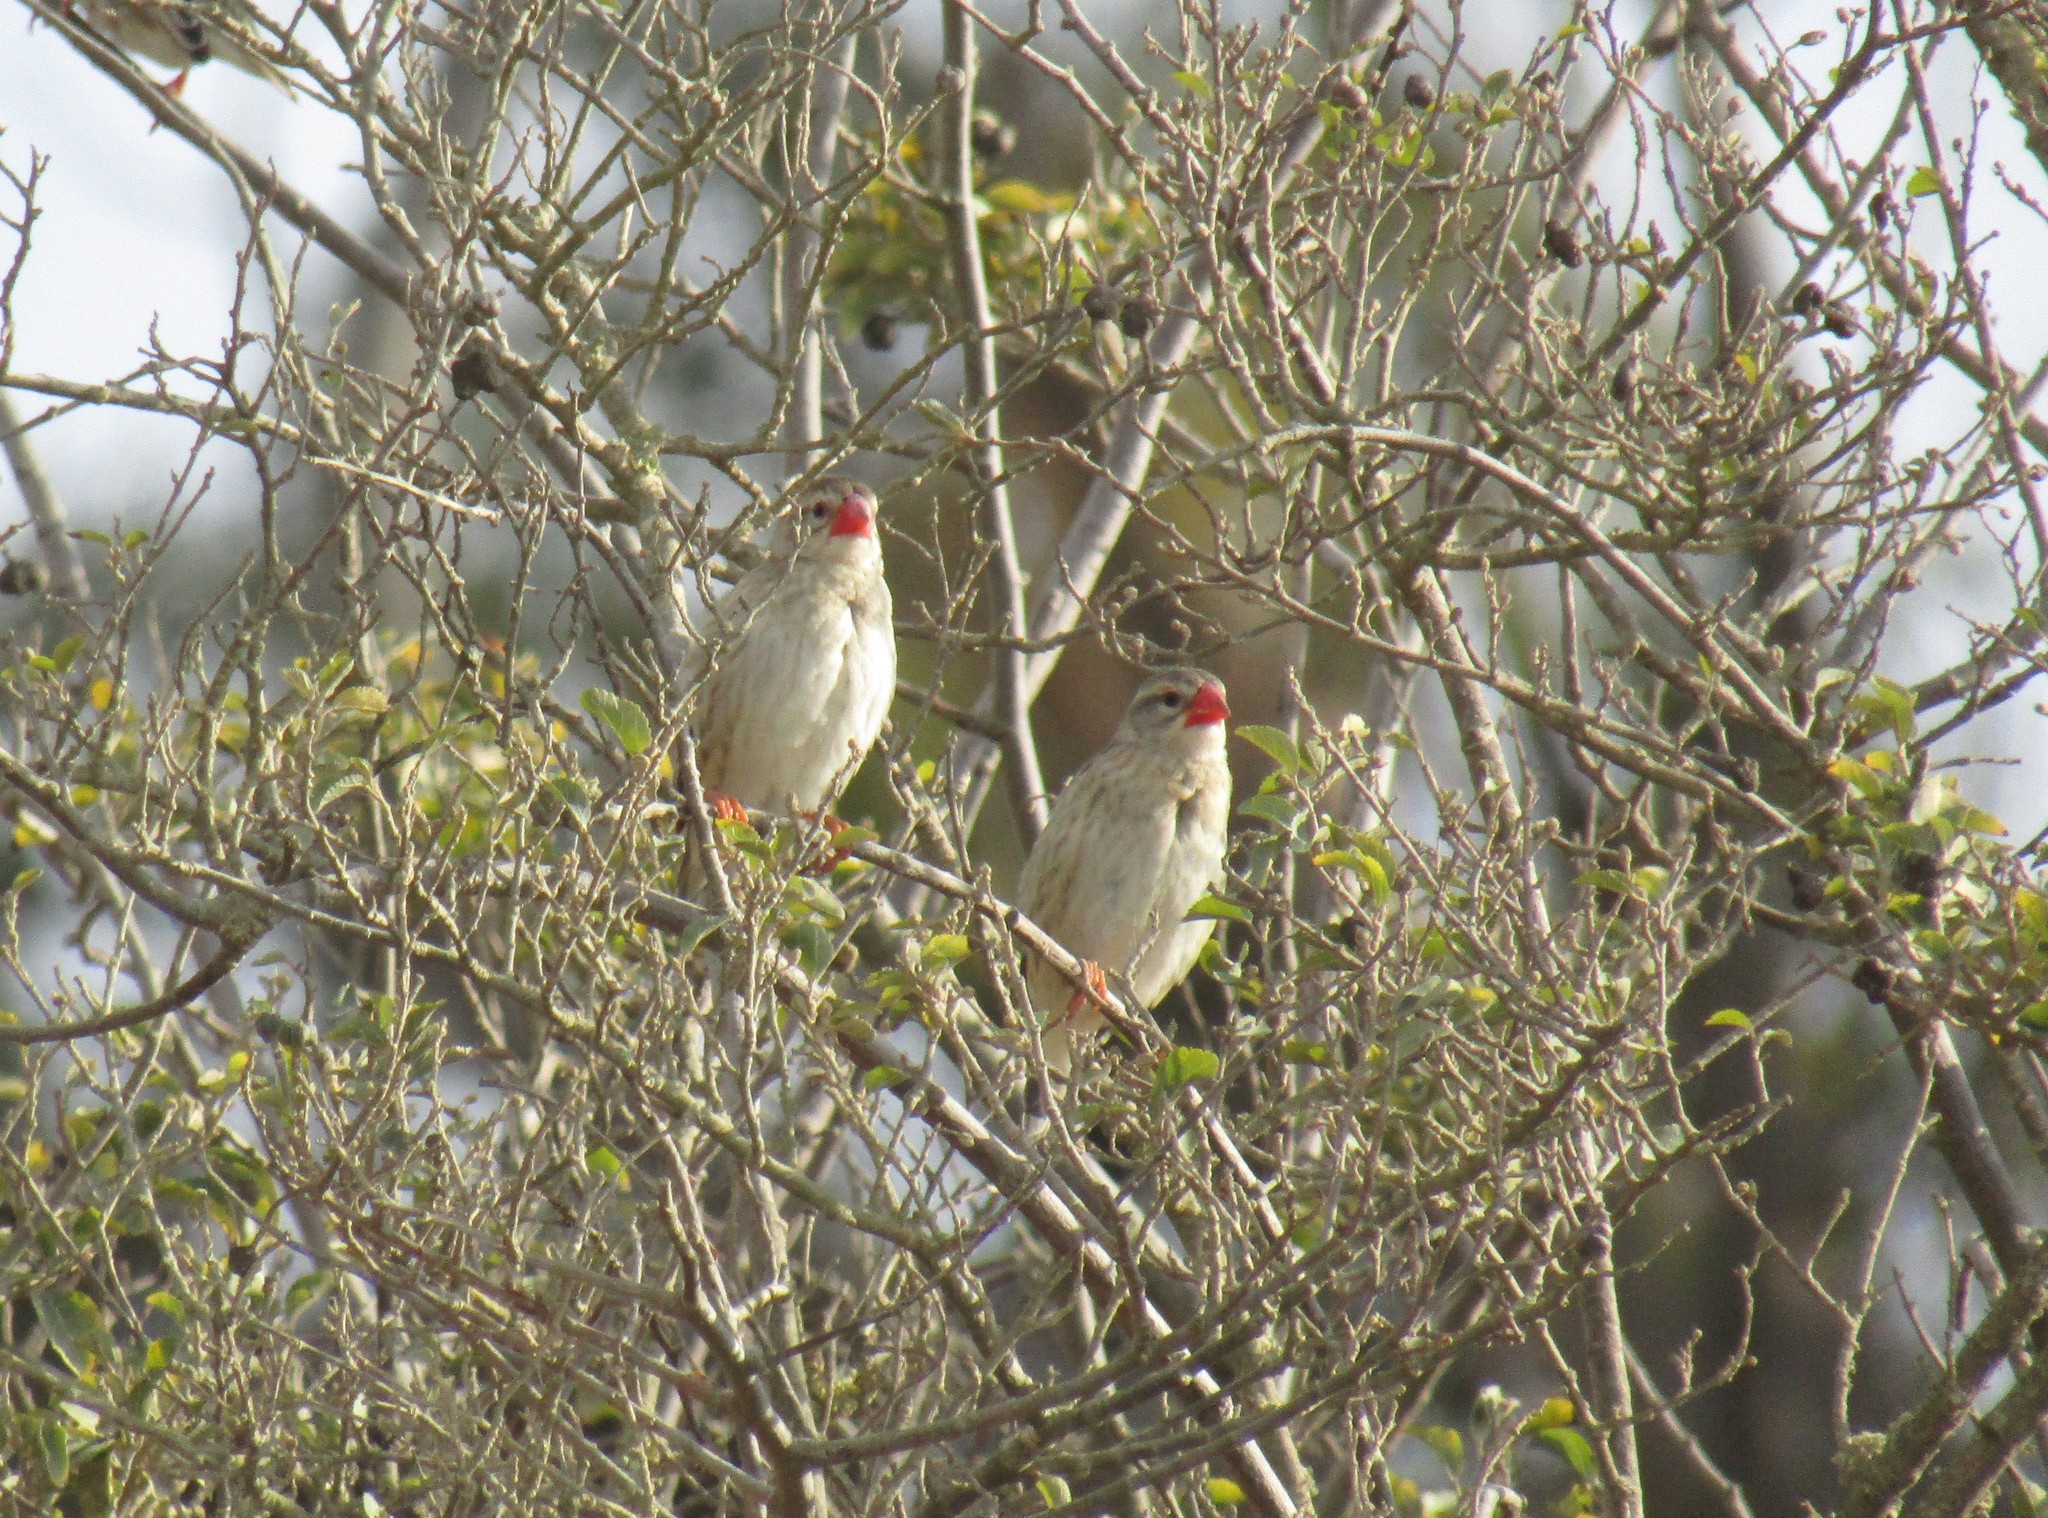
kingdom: Animalia
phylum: Chordata
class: Aves
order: Passeriformes
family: Ploceidae
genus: Quelea
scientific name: Quelea quelea
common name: Red-billed quelea
